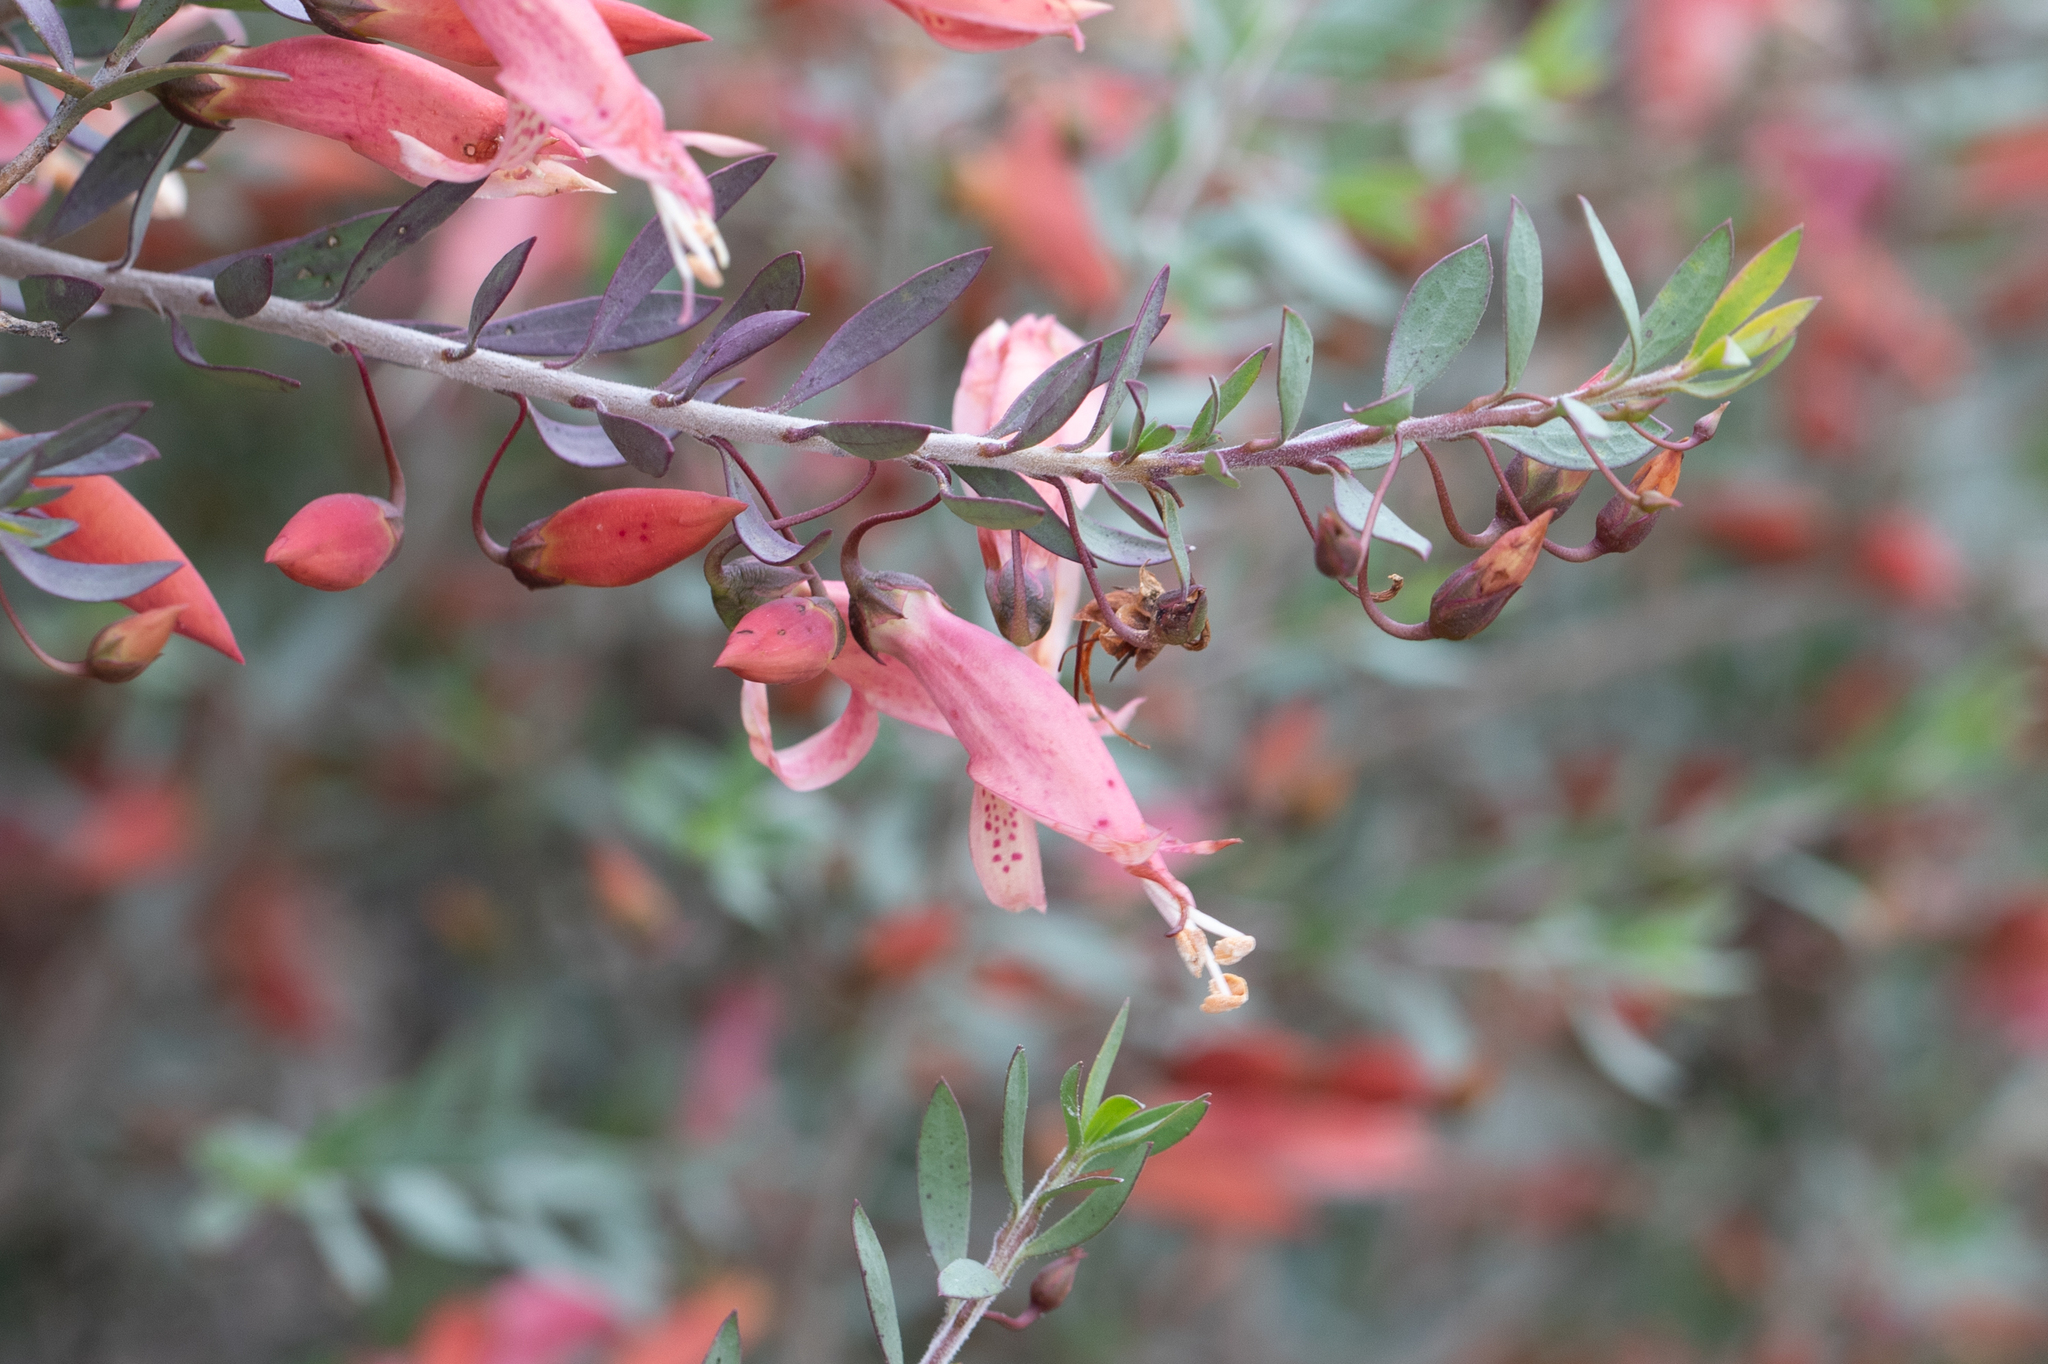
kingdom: Plantae
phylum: Tracheophyta
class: Magnoliopsida
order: Lamiales
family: Scrophulariaceae
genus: Eremophila
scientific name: Eremophila maculata
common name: Fuchsiabush
